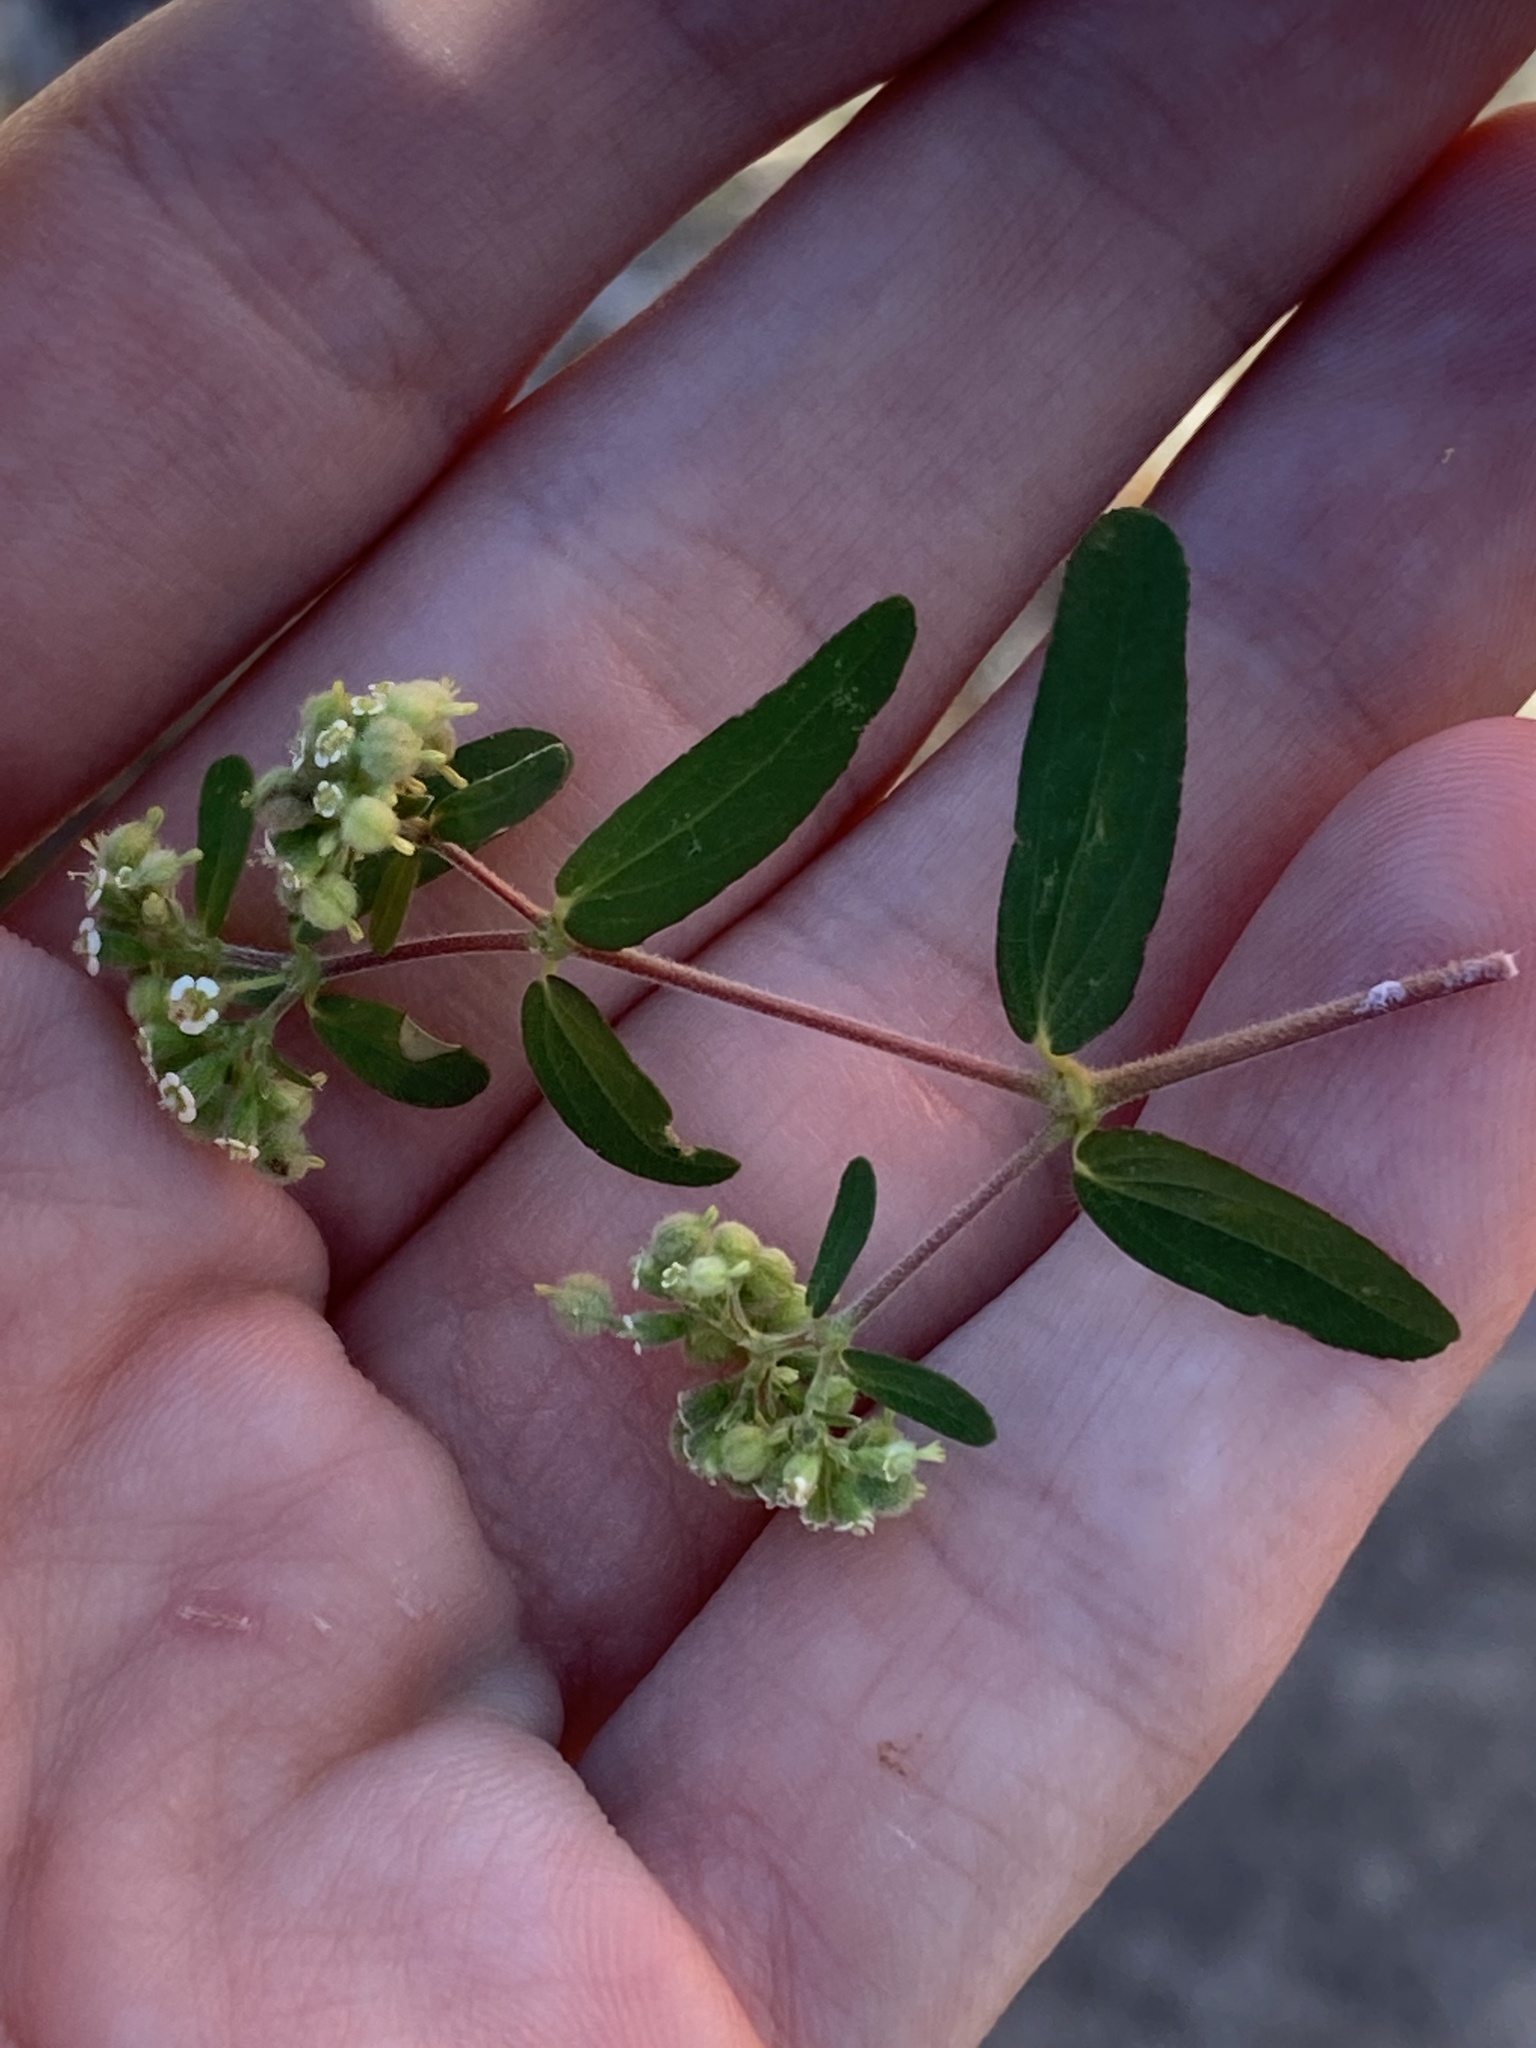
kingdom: Plantae
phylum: Tracheophyta
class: Magnoliopsida
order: Malpighiales
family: Euphorbiaceae
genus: Euphorbia
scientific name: Euphorbia lasiocarpa
